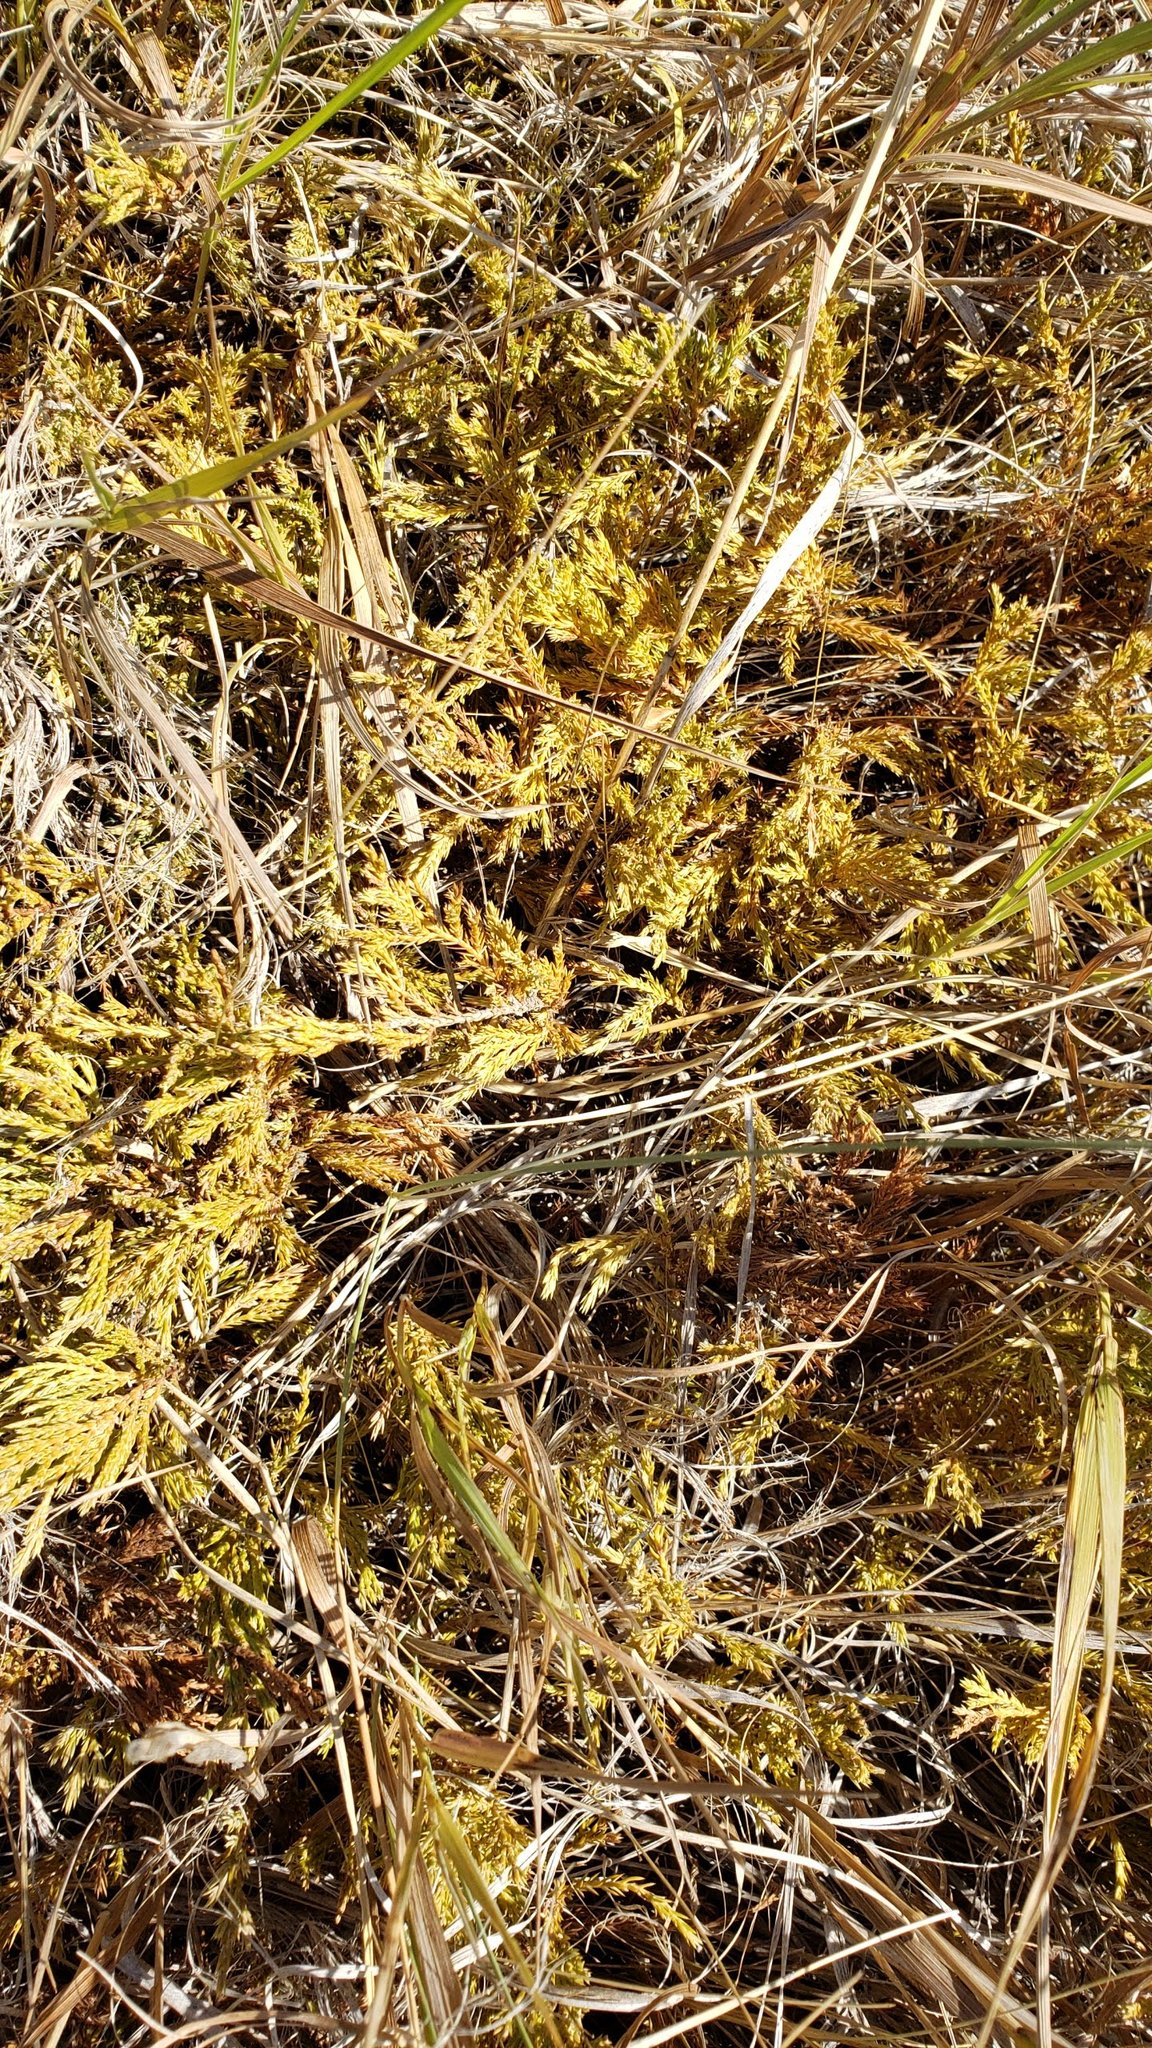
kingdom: Plantae
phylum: Tracheophyta
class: Pinopsida
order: Pinales
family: Cupressaceae
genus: Juniperus
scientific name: Juniperus horizontalis
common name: Creeping juniper
